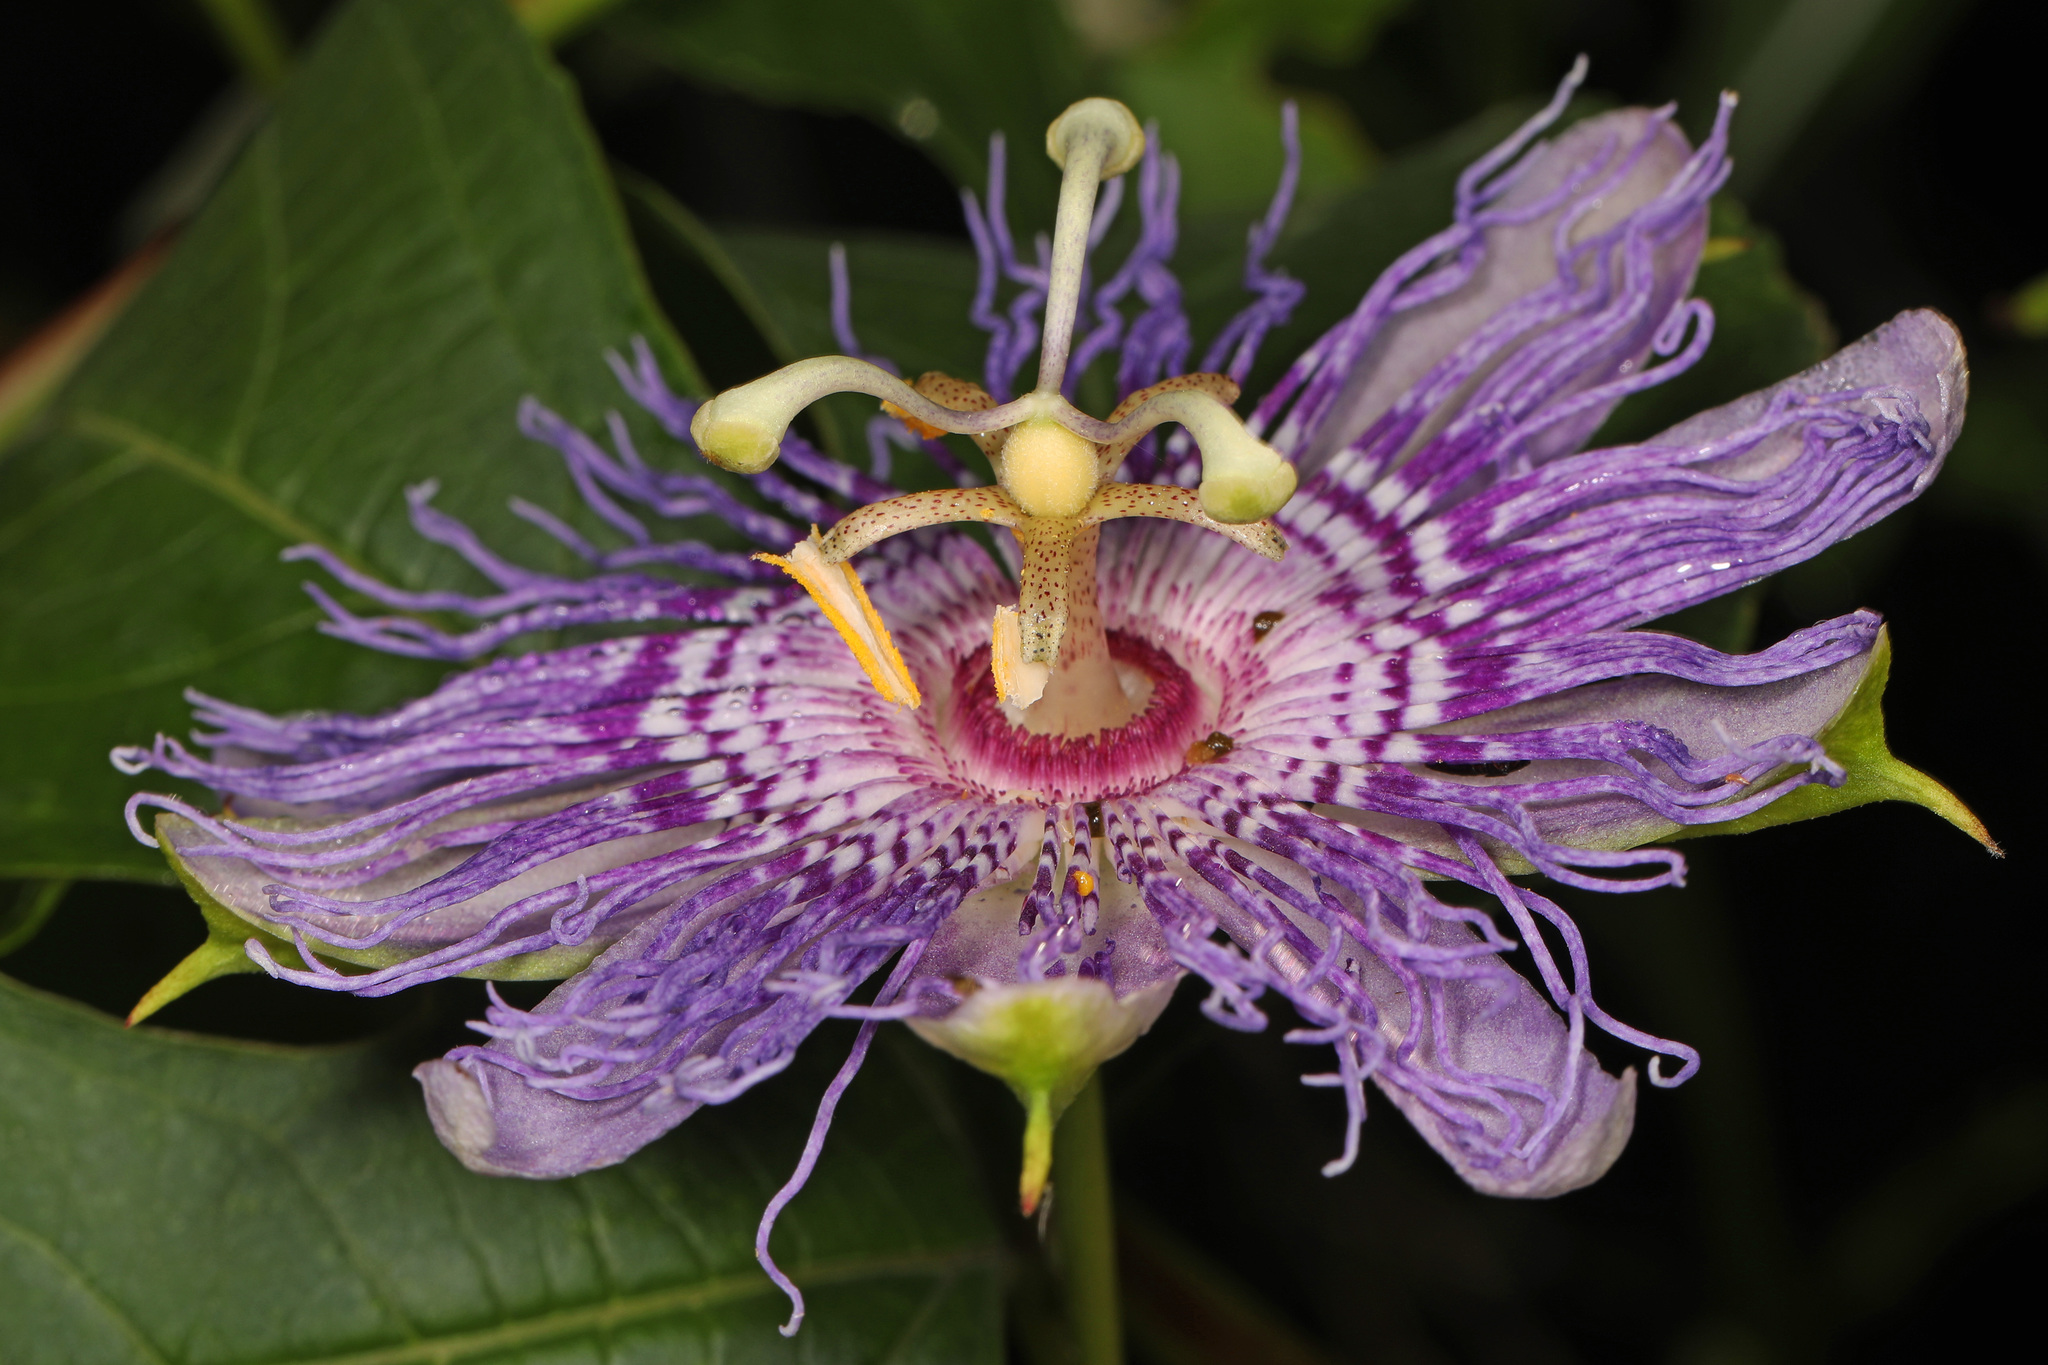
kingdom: Plantae
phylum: Tracheophyta
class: Magnoliopsida
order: Malpighiales
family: Passifloraceae
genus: Passiflora
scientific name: Passiflora incarnata
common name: Apricot-vine
